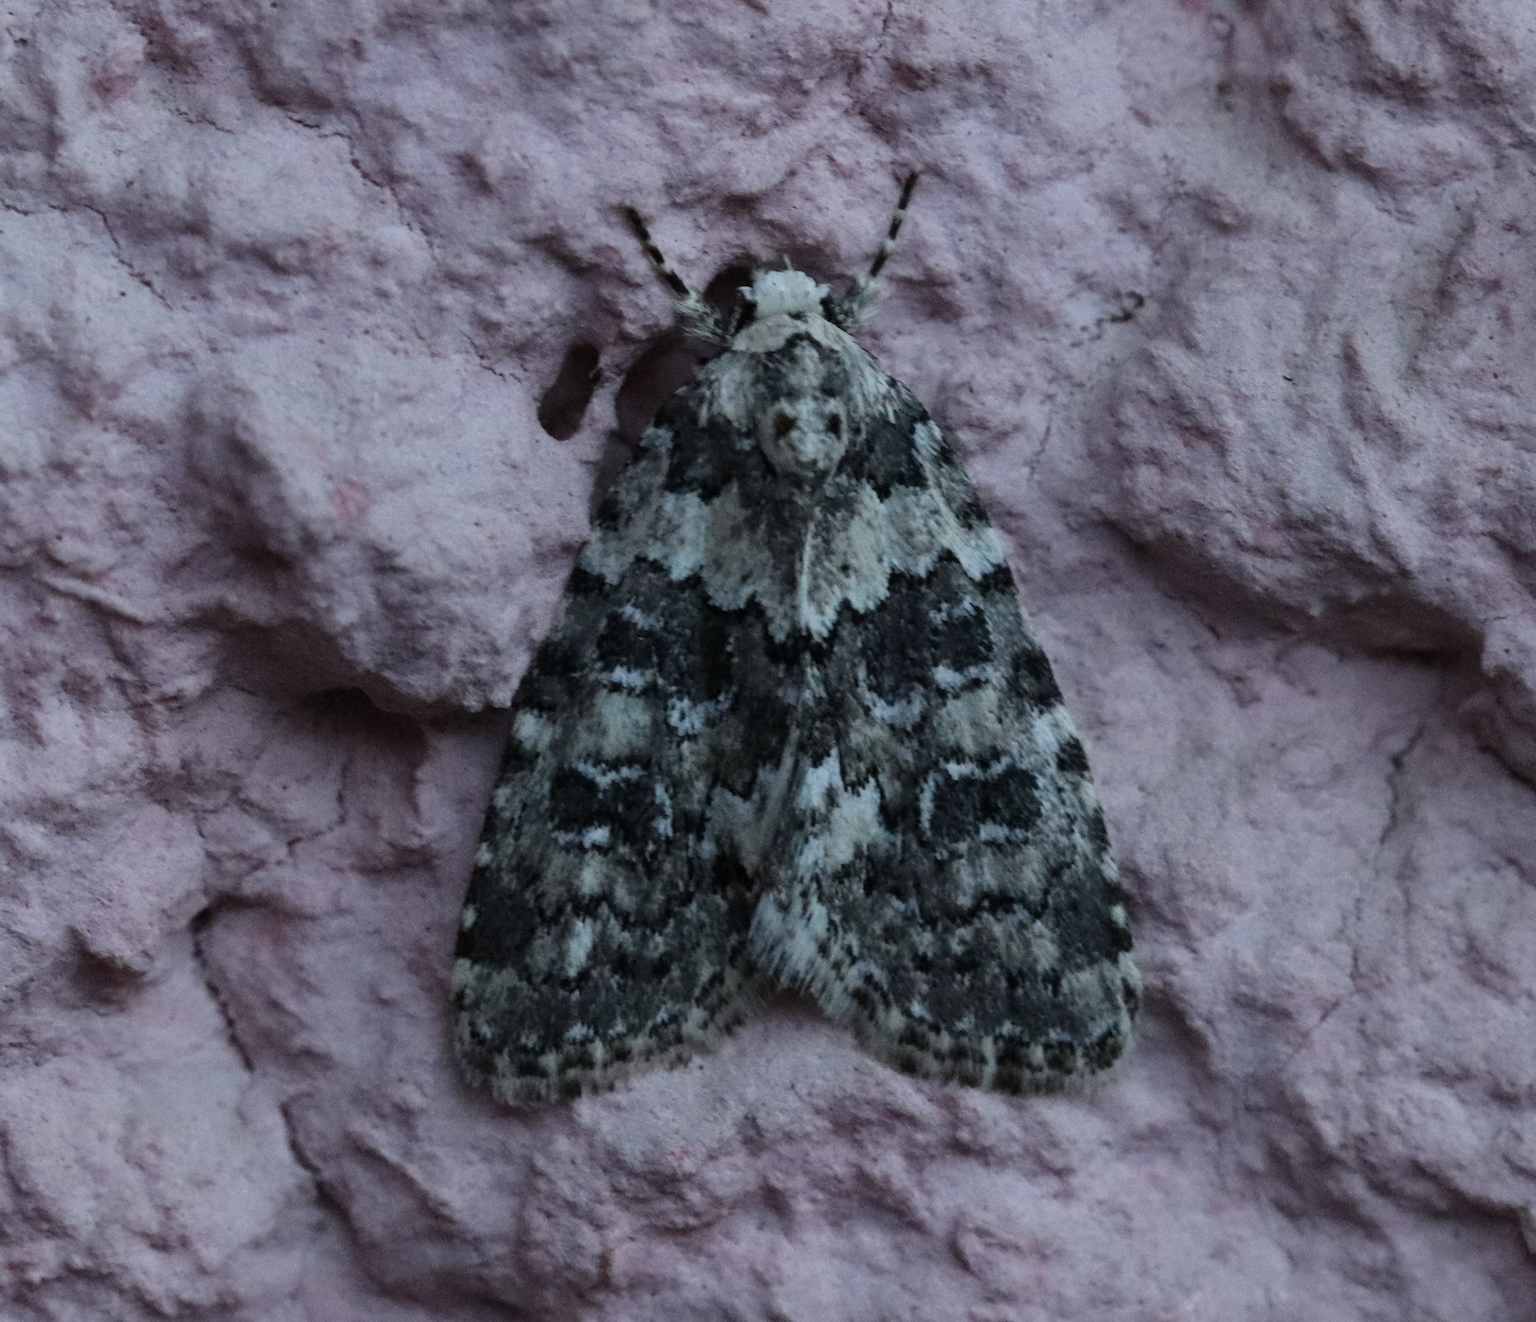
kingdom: Animalia
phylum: Arthropoda
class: Insecta
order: Lepidoptera
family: Noctuidae
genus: Bryophila
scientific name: Bryophila domestica
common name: Marbled beauty
